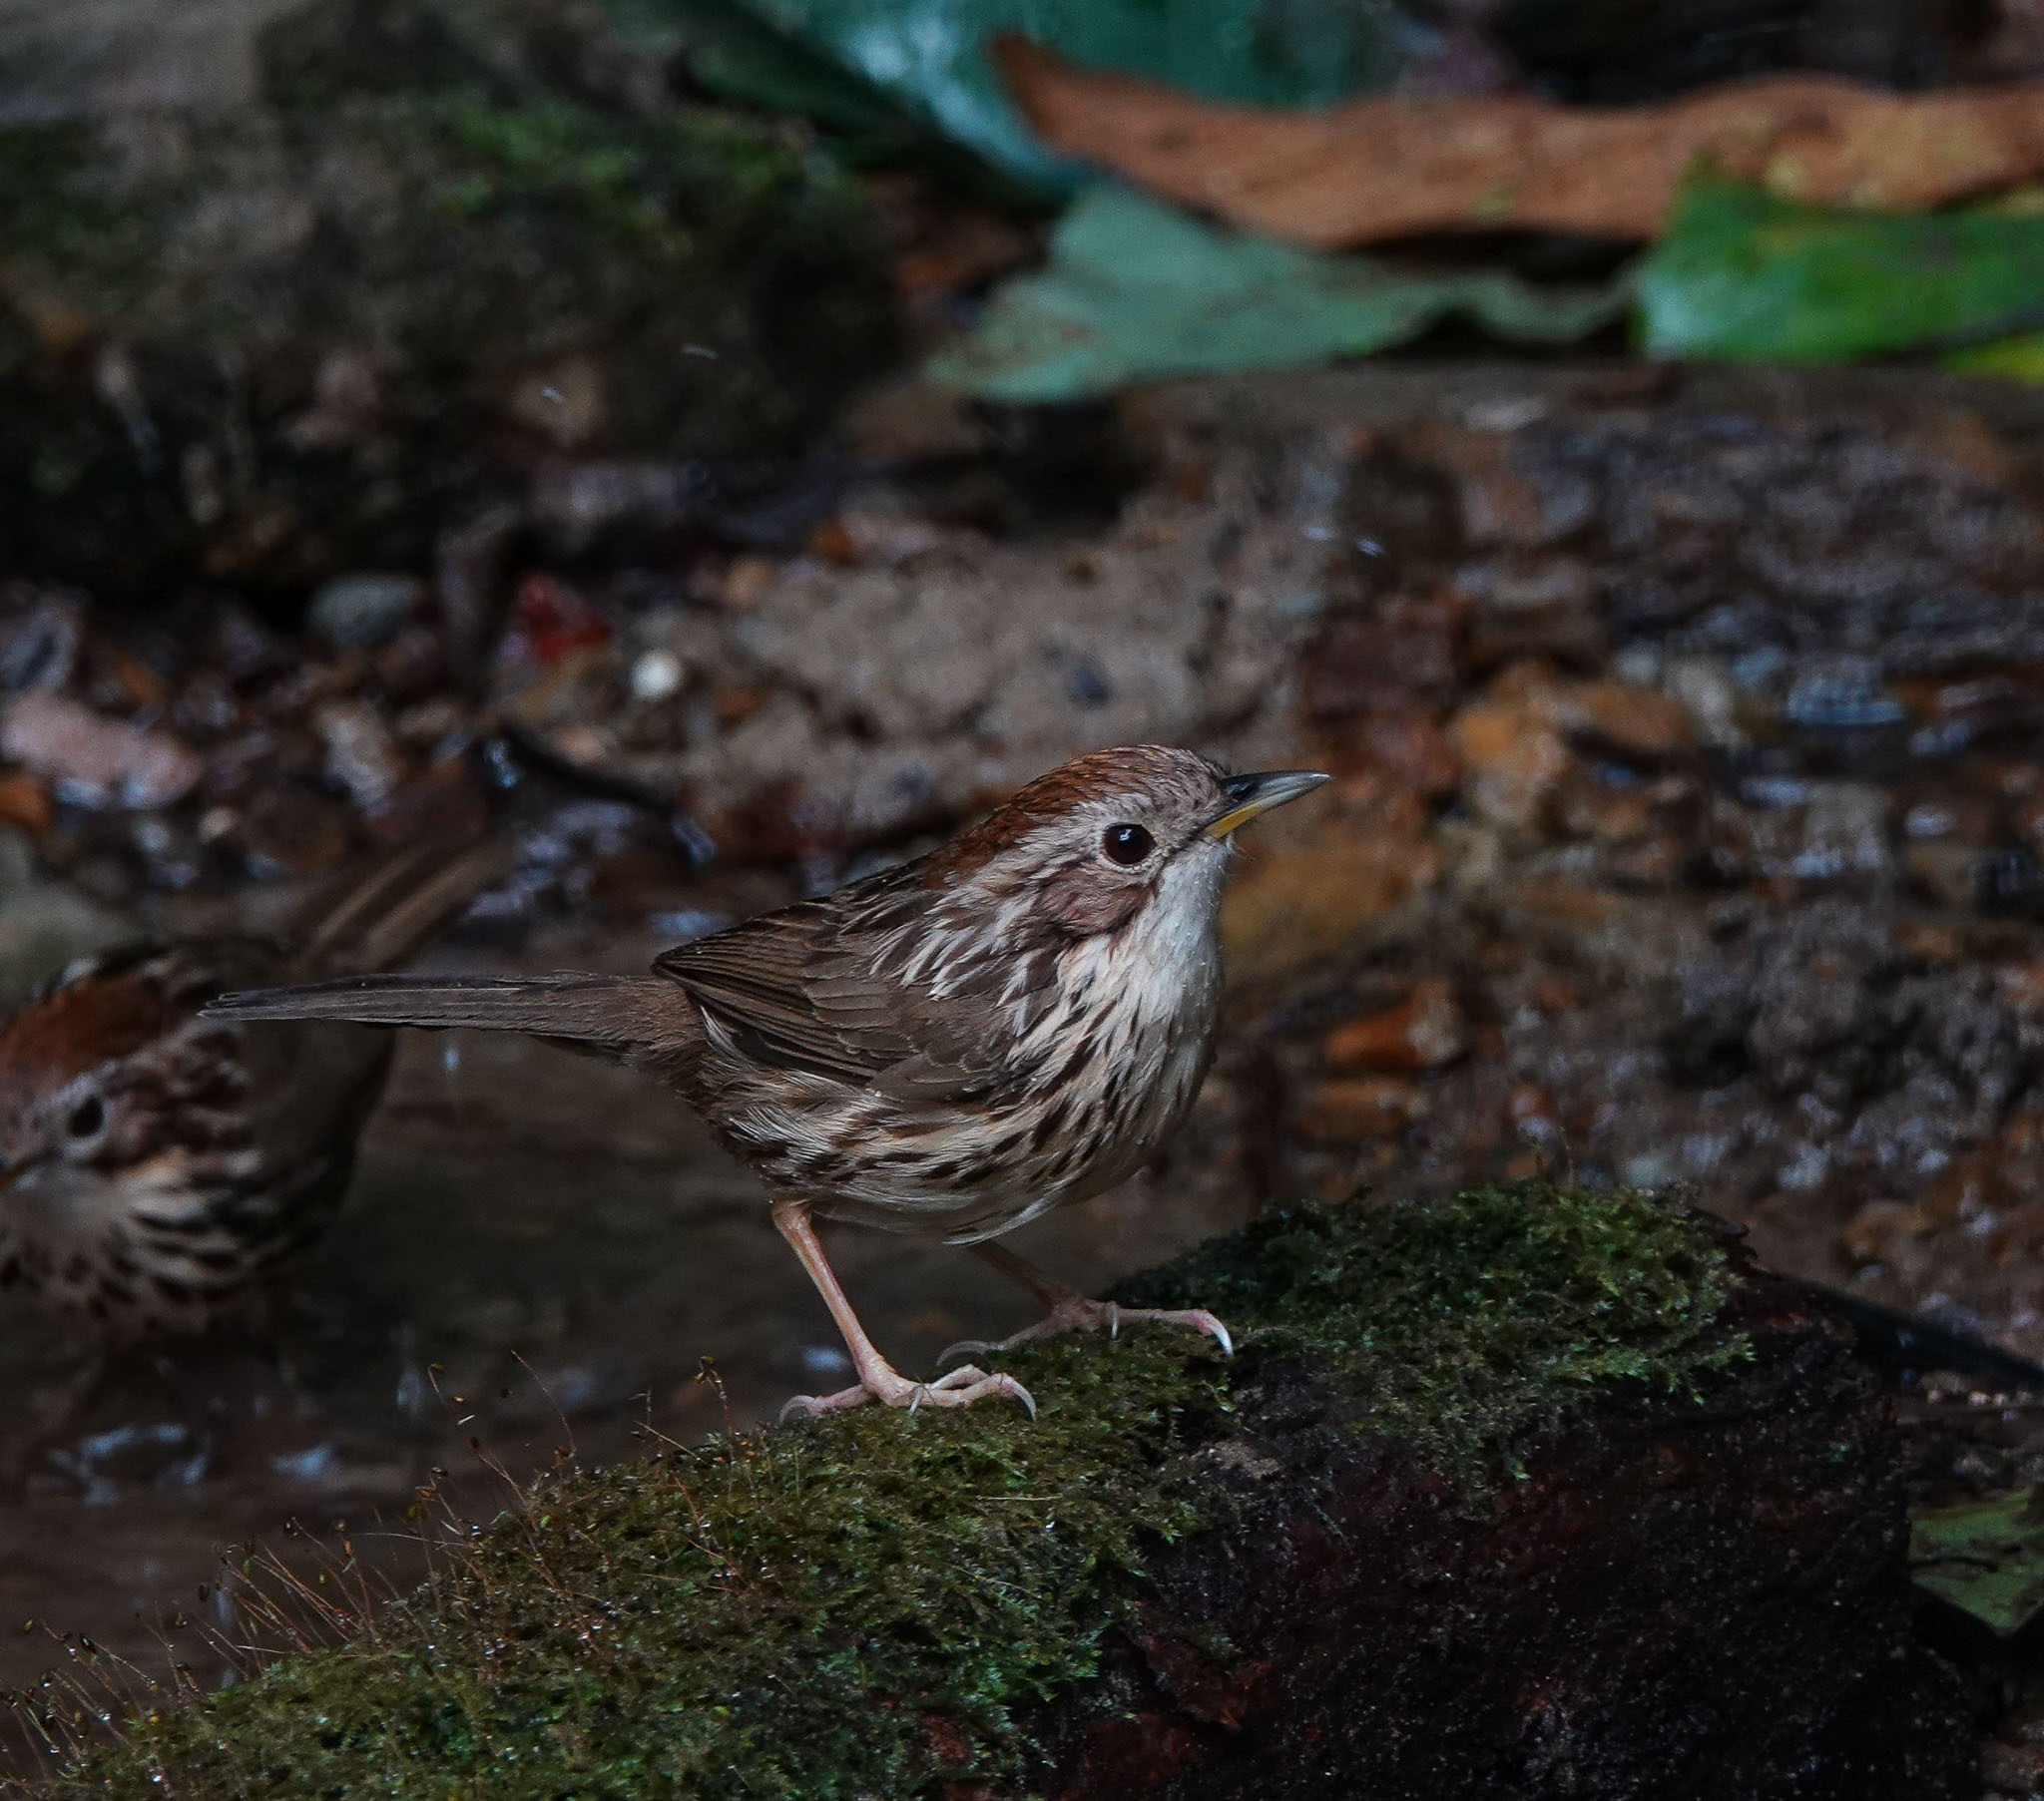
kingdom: Animalia
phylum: Chordata
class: Aves
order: Passeriformes
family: Pellorneidae
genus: Pellorneum
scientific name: Pellorneum ruficeps
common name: Puff-throated babbler
